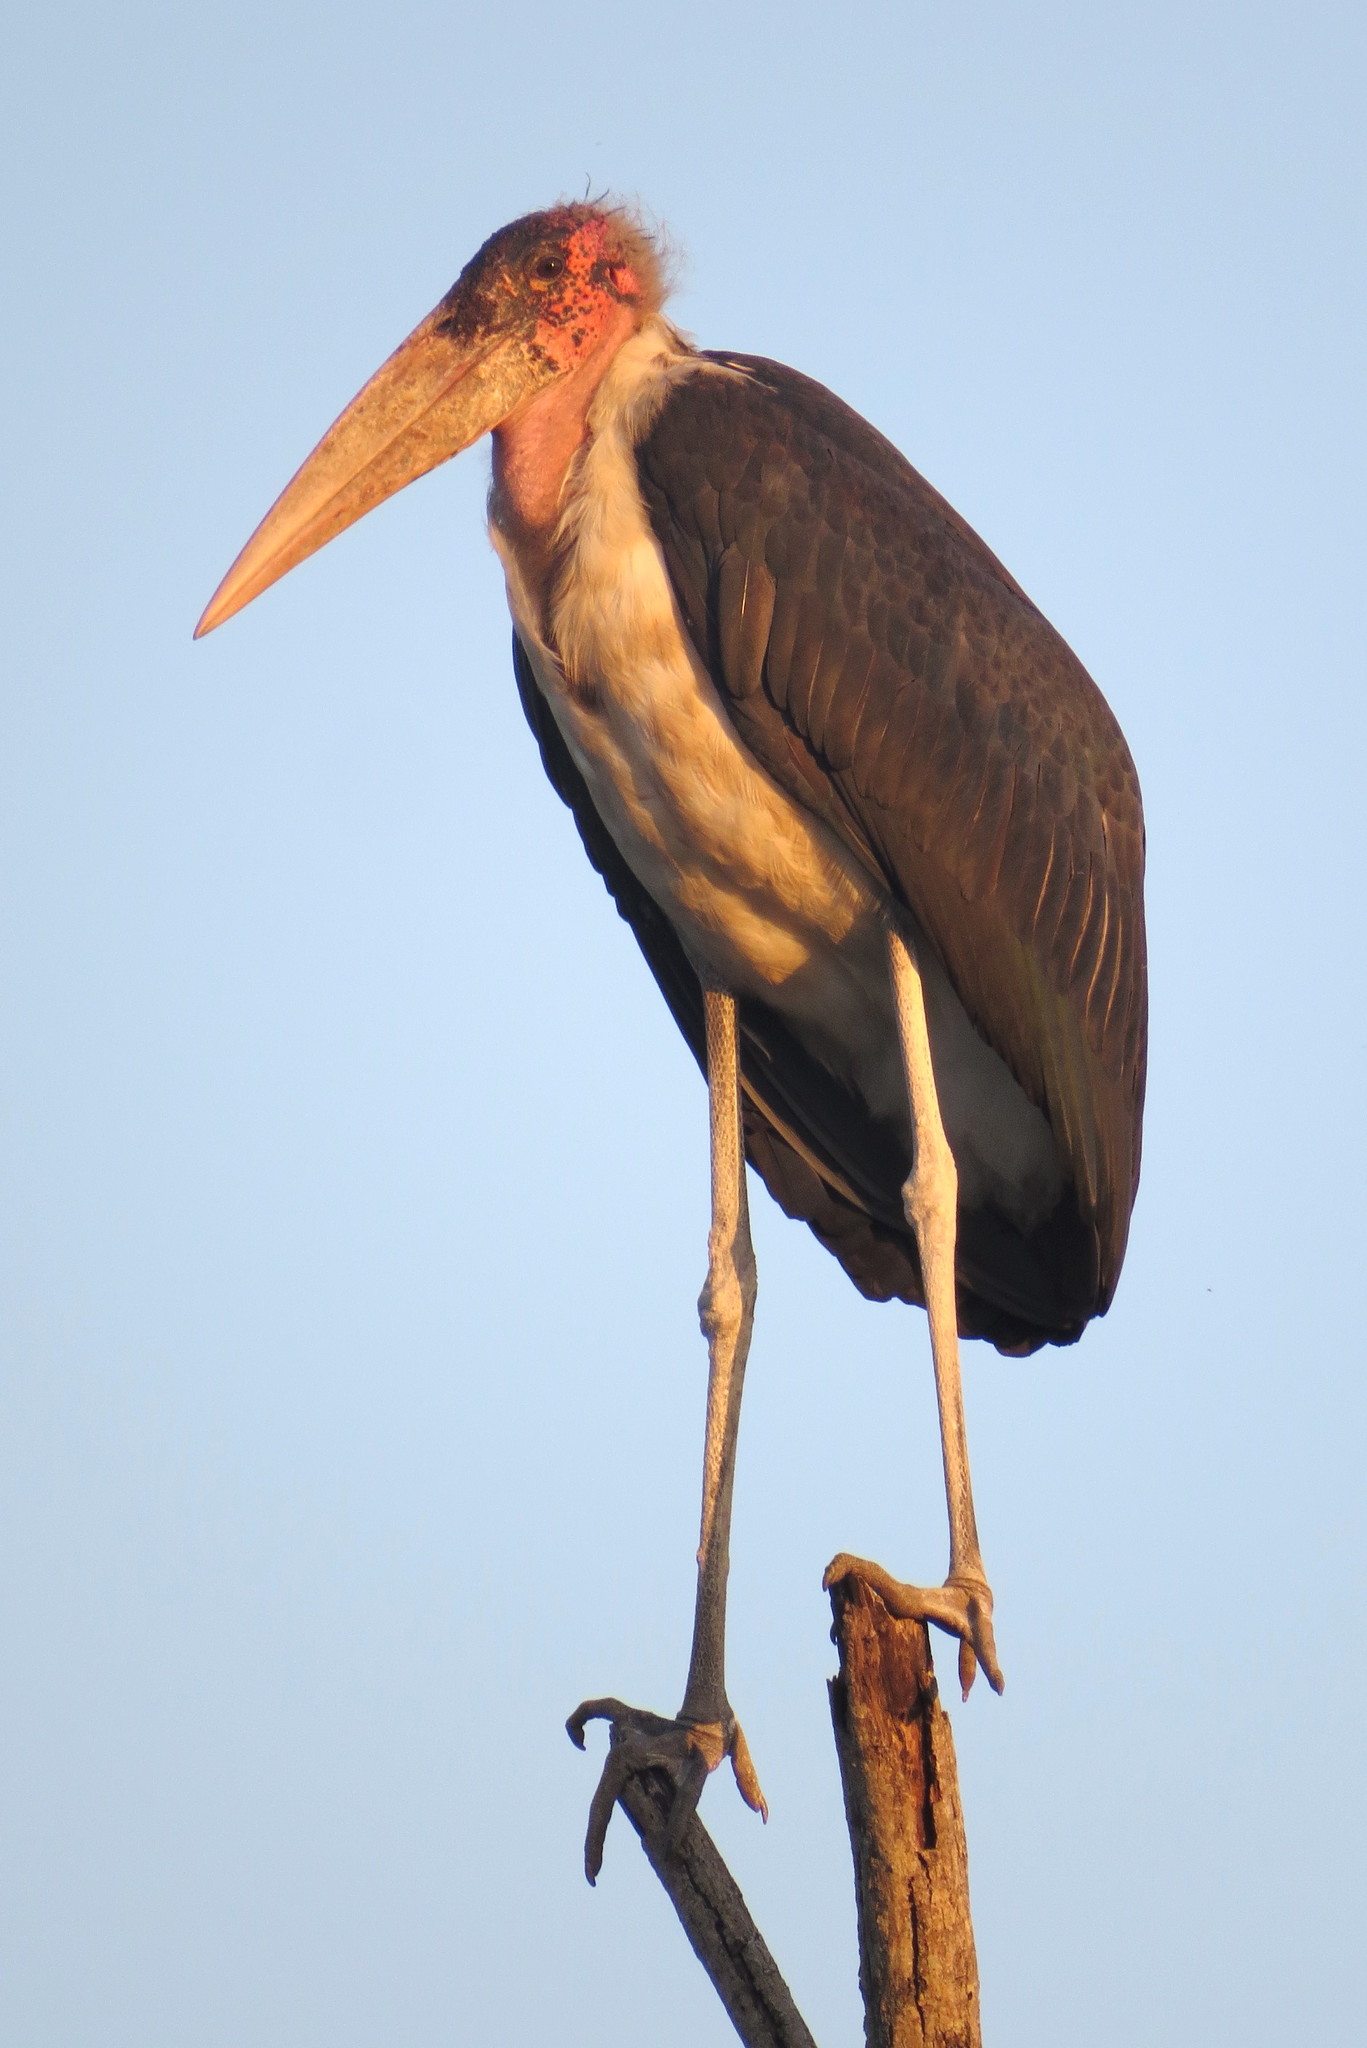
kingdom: Animalia
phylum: Chordata
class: Aves
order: Ciconiiformes
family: Ciconiidae
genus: Leptoptilos
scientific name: Leptoptilos crumenifer
